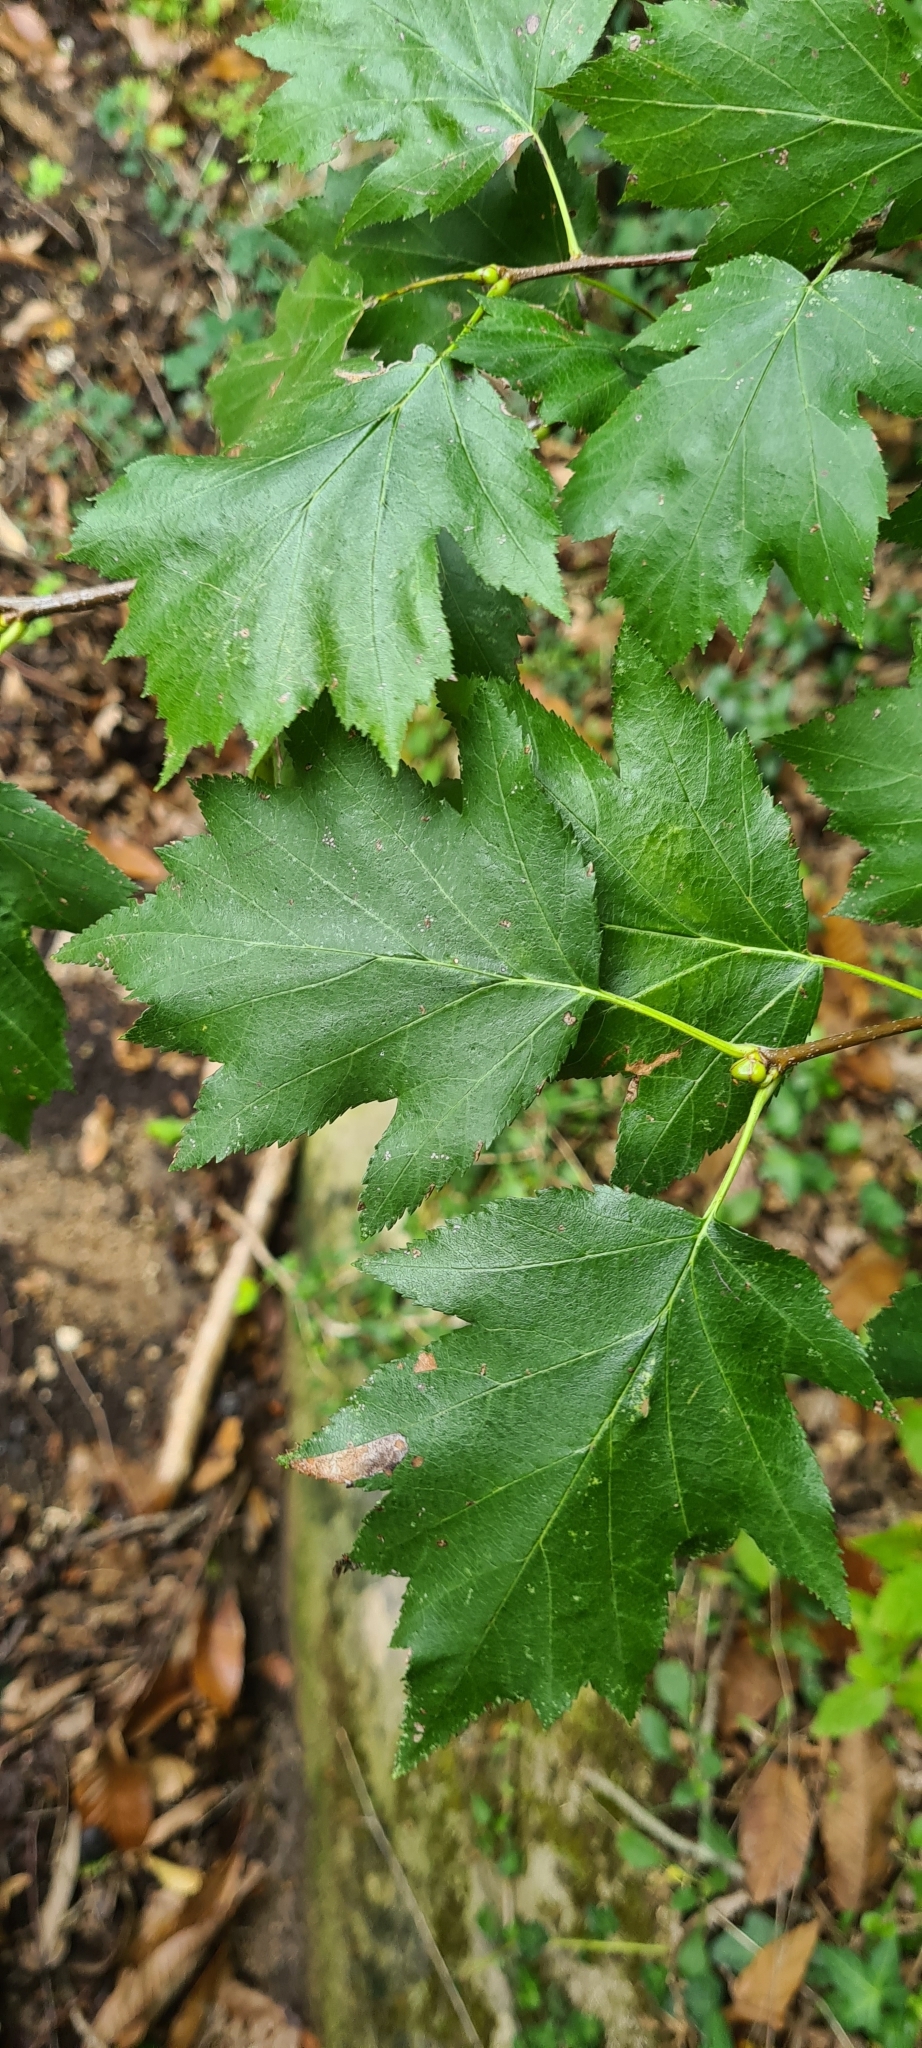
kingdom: Plantae
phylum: Tracheophyta
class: Magnoliopsida
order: Rosales
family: Rosaceae
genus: Torminalis
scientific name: Torminalis glaberrima
